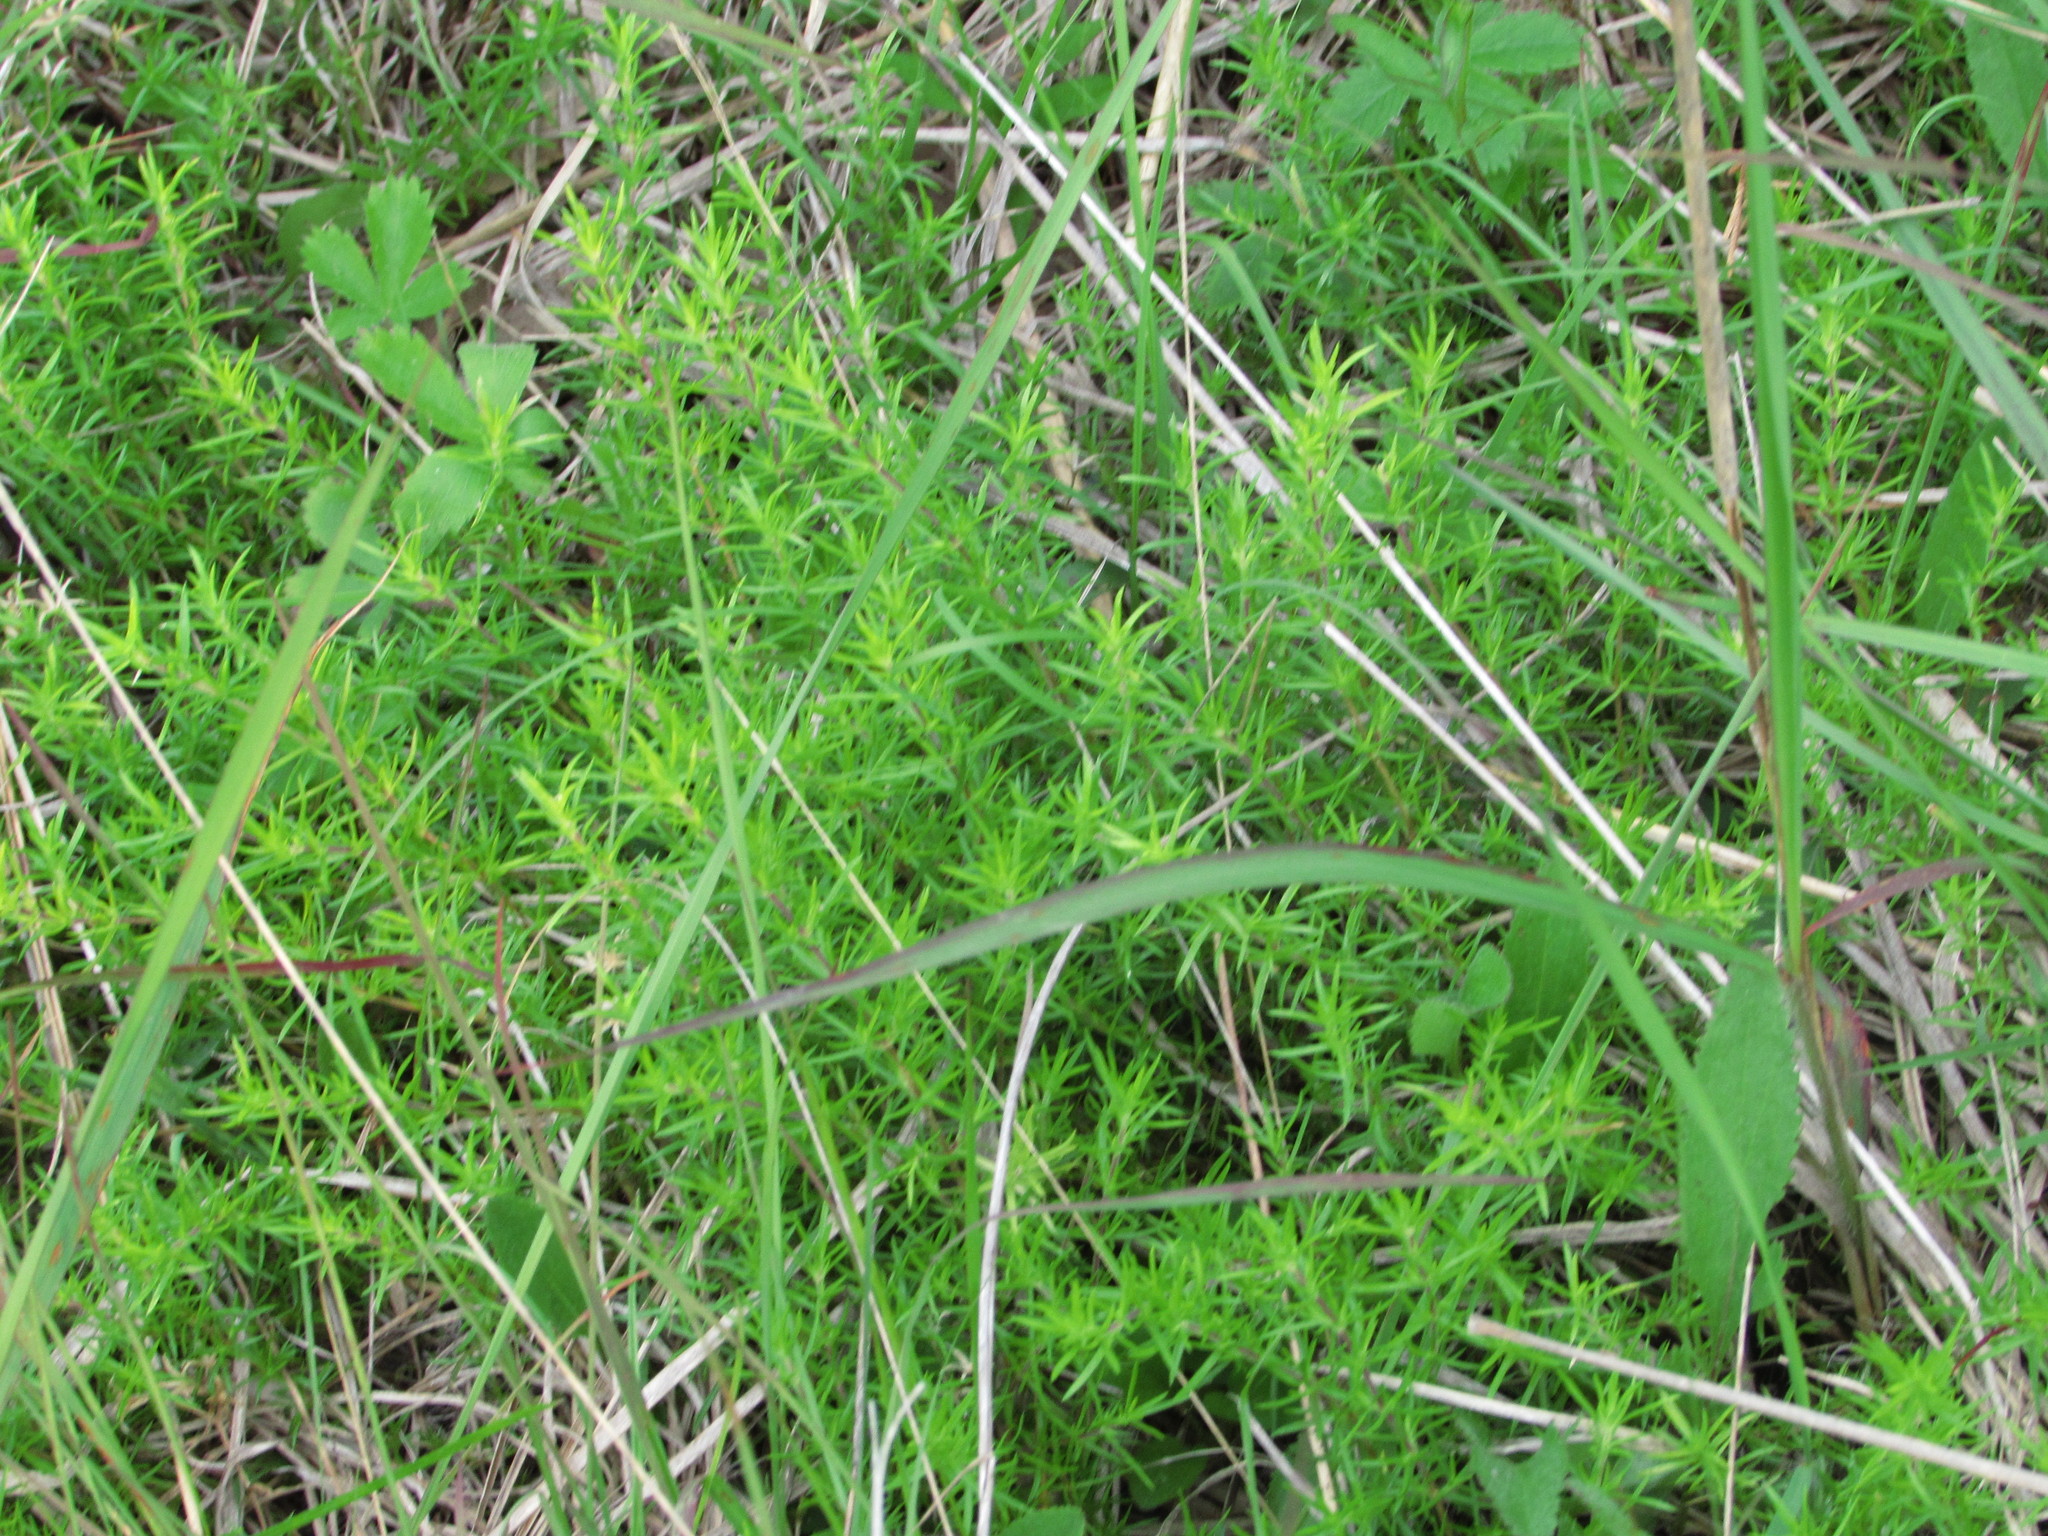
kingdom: Plantae
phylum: Tracheophyta
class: Magnoliopsida
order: Ericales
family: Polemoniaceae
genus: Phlox
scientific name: Phlox subulata
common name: Moss phlox
